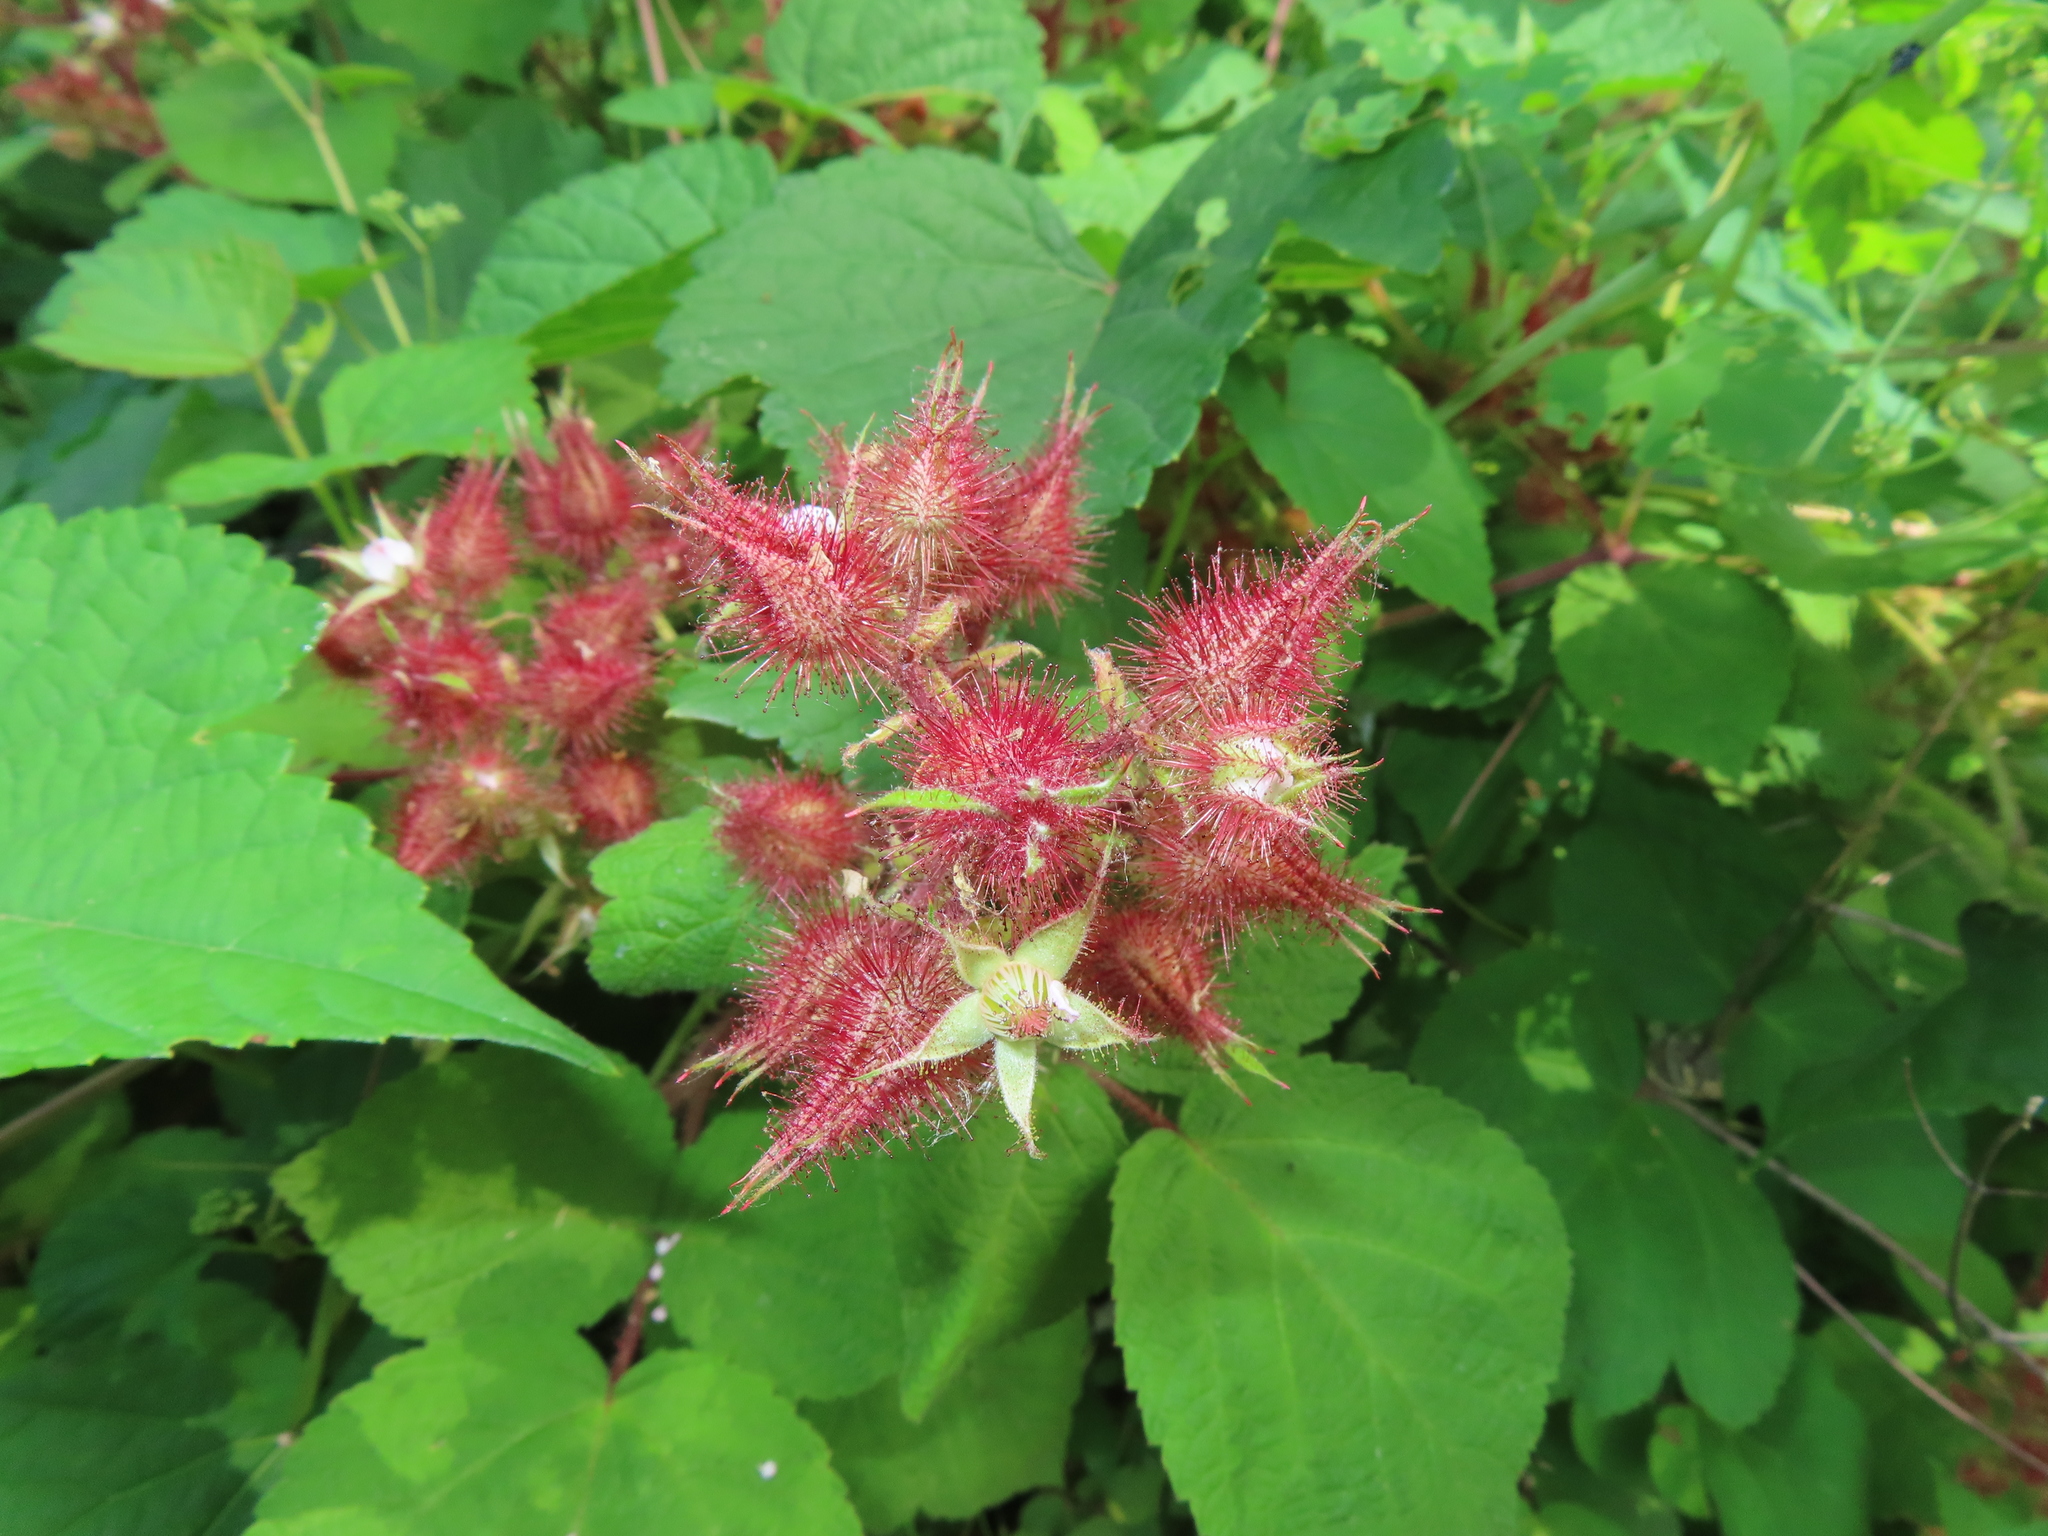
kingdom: Plantae
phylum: Tracheophyta
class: Magnoliopsida
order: Rosales
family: Rosaceae
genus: Rubus
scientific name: Rubus phoenicolasius
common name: Japanese wineberry
